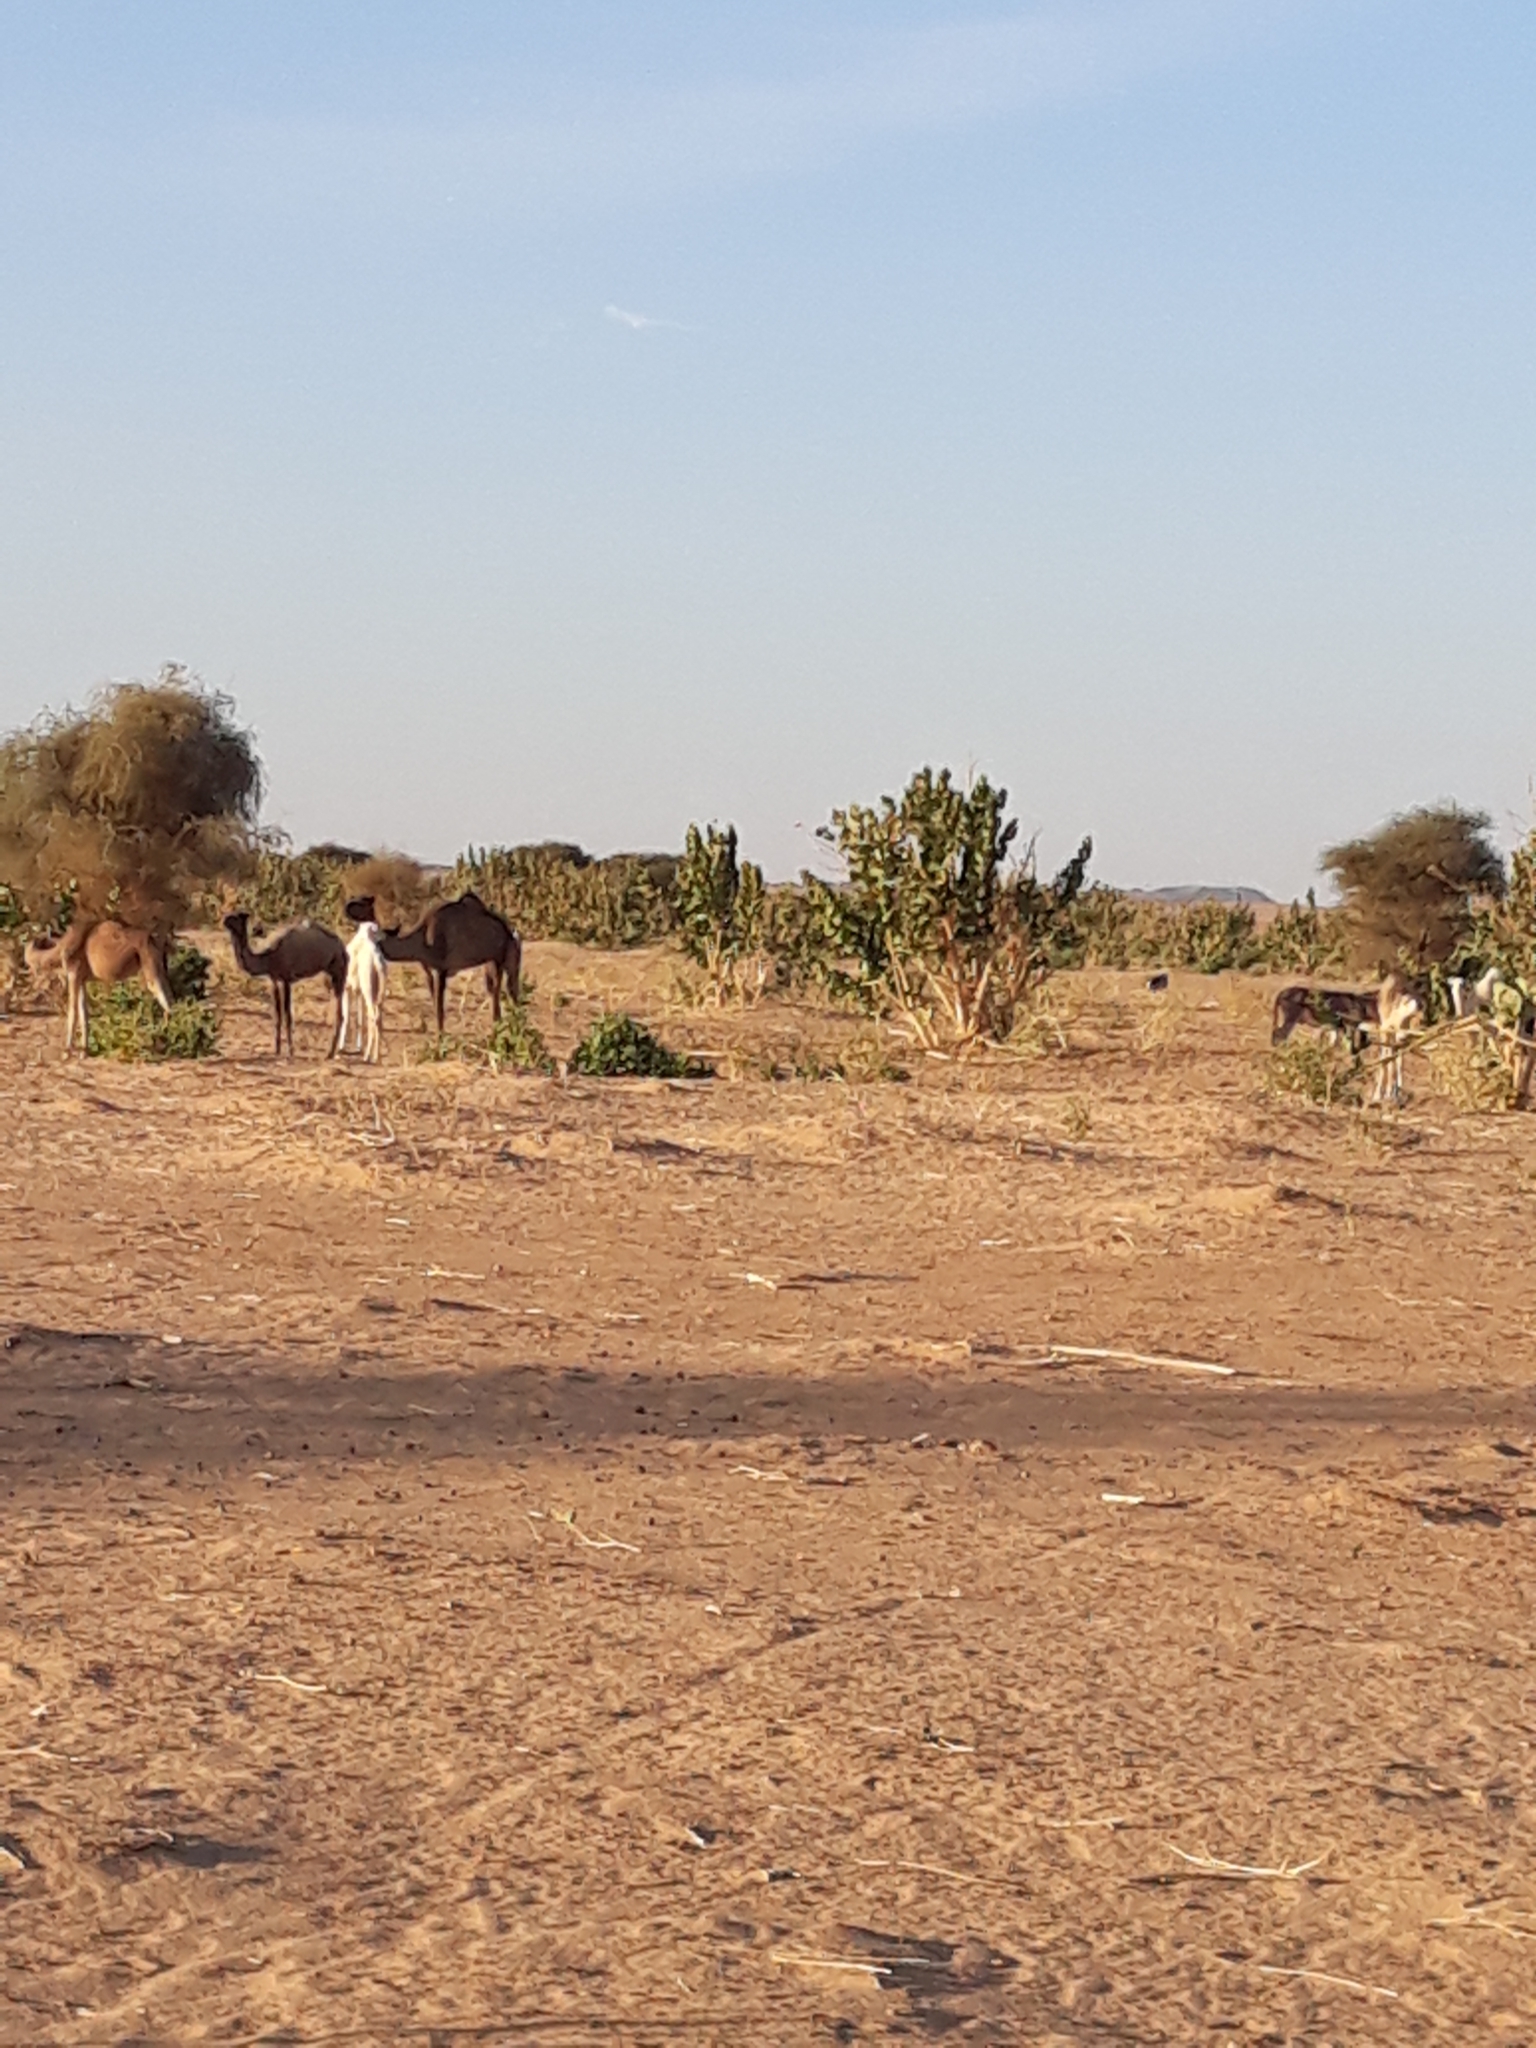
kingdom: Animalia
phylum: Chordata
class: Mammalia
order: Artiodactyla
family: Camelidae
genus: Camelus
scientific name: Camelus dromedarius
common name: One-humped camel
